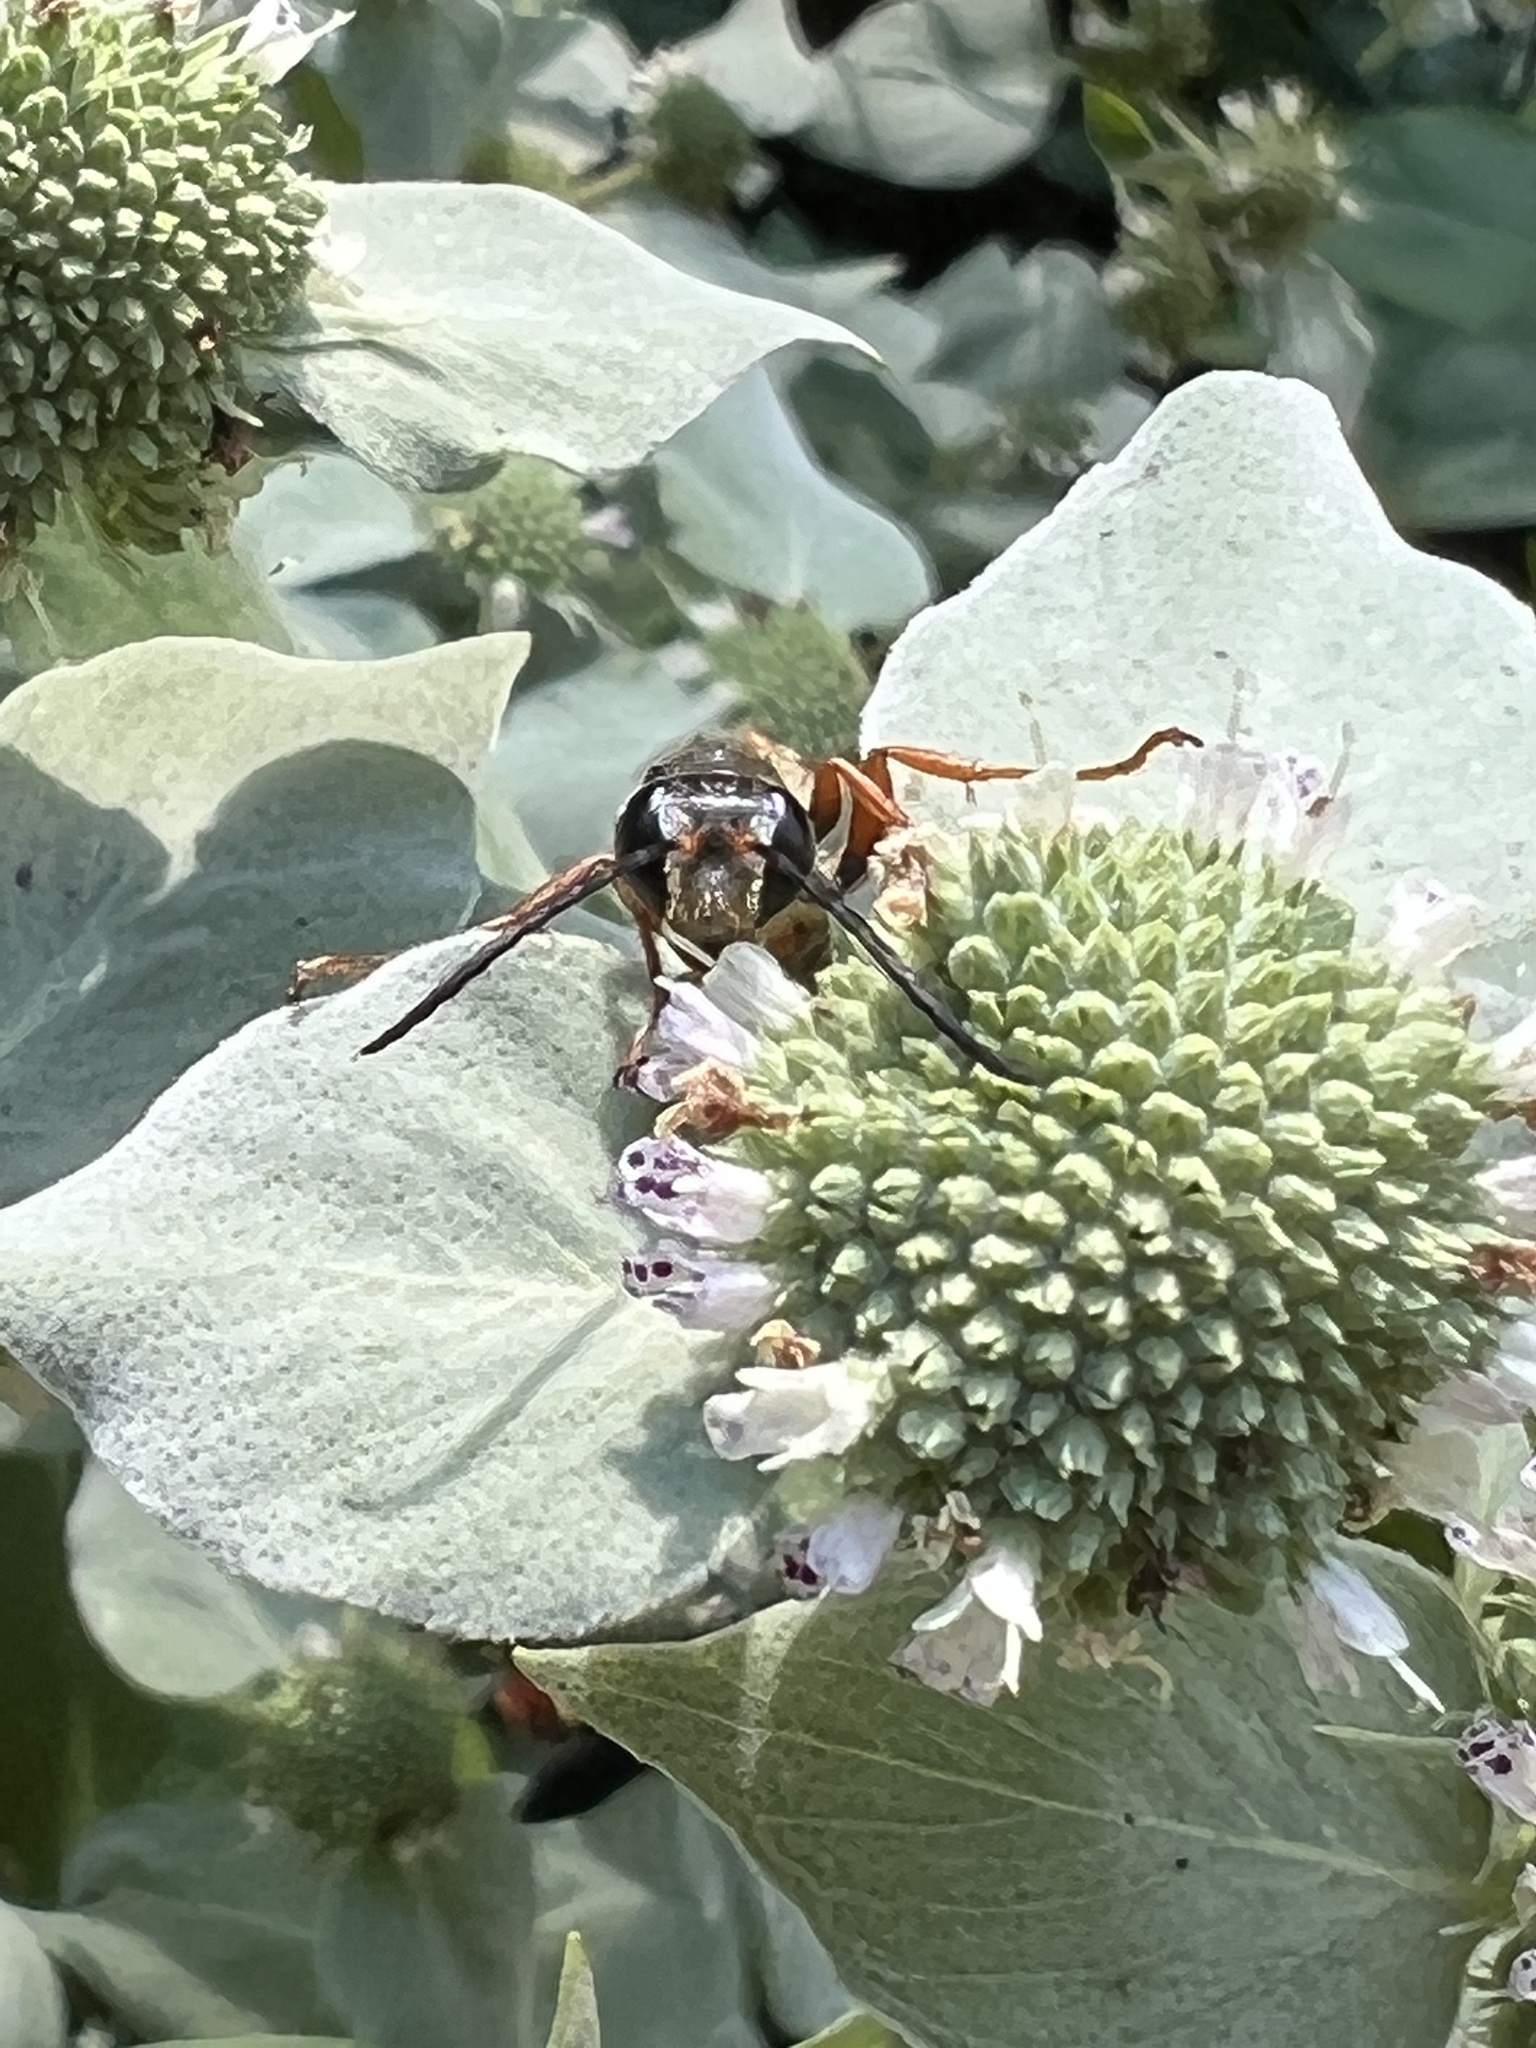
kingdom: Animalia
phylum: Arthropoda
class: Insecta
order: Hymenoptera
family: Sphecidae
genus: Isodontia
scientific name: Isodontia elegans
